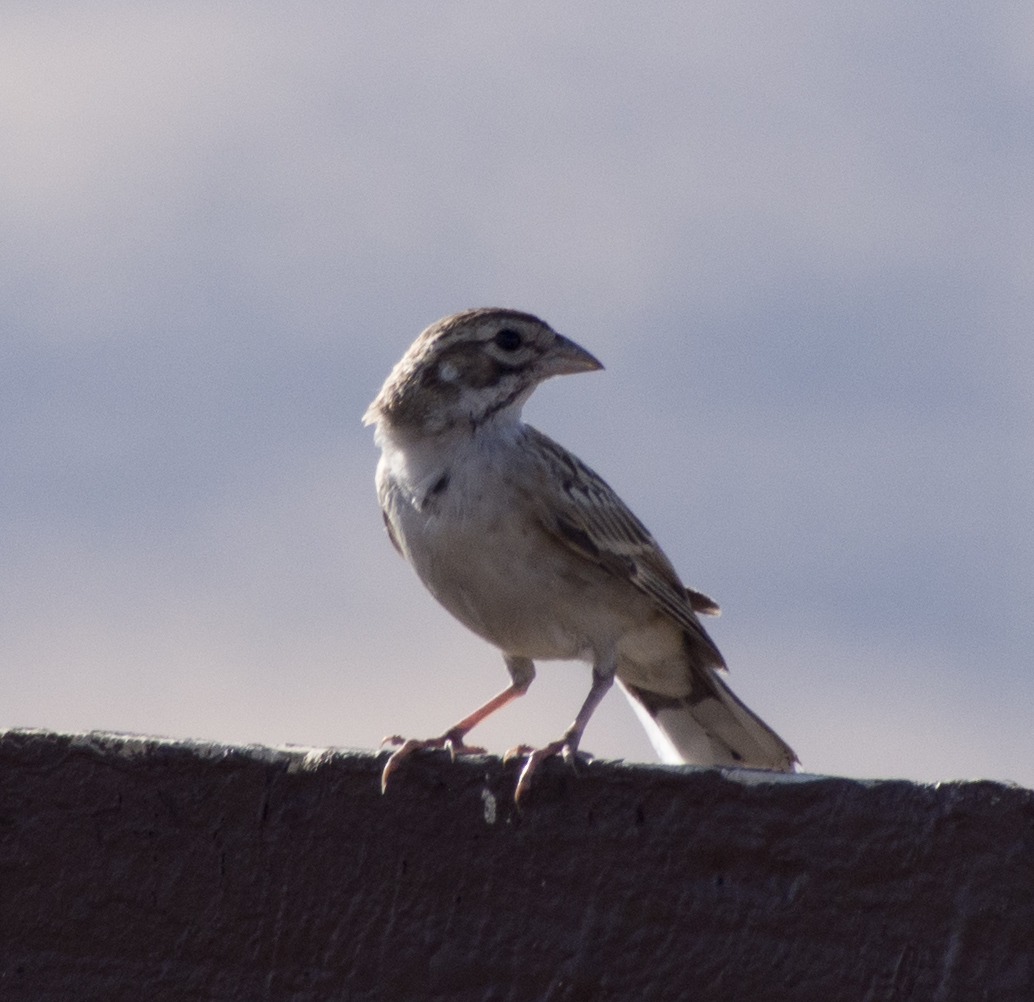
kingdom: Animalia
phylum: Chordata
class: Aves
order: Passeriformes
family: Passerellidae
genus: Chondestes
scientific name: Chondestes grammacus
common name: Lark sparrow
